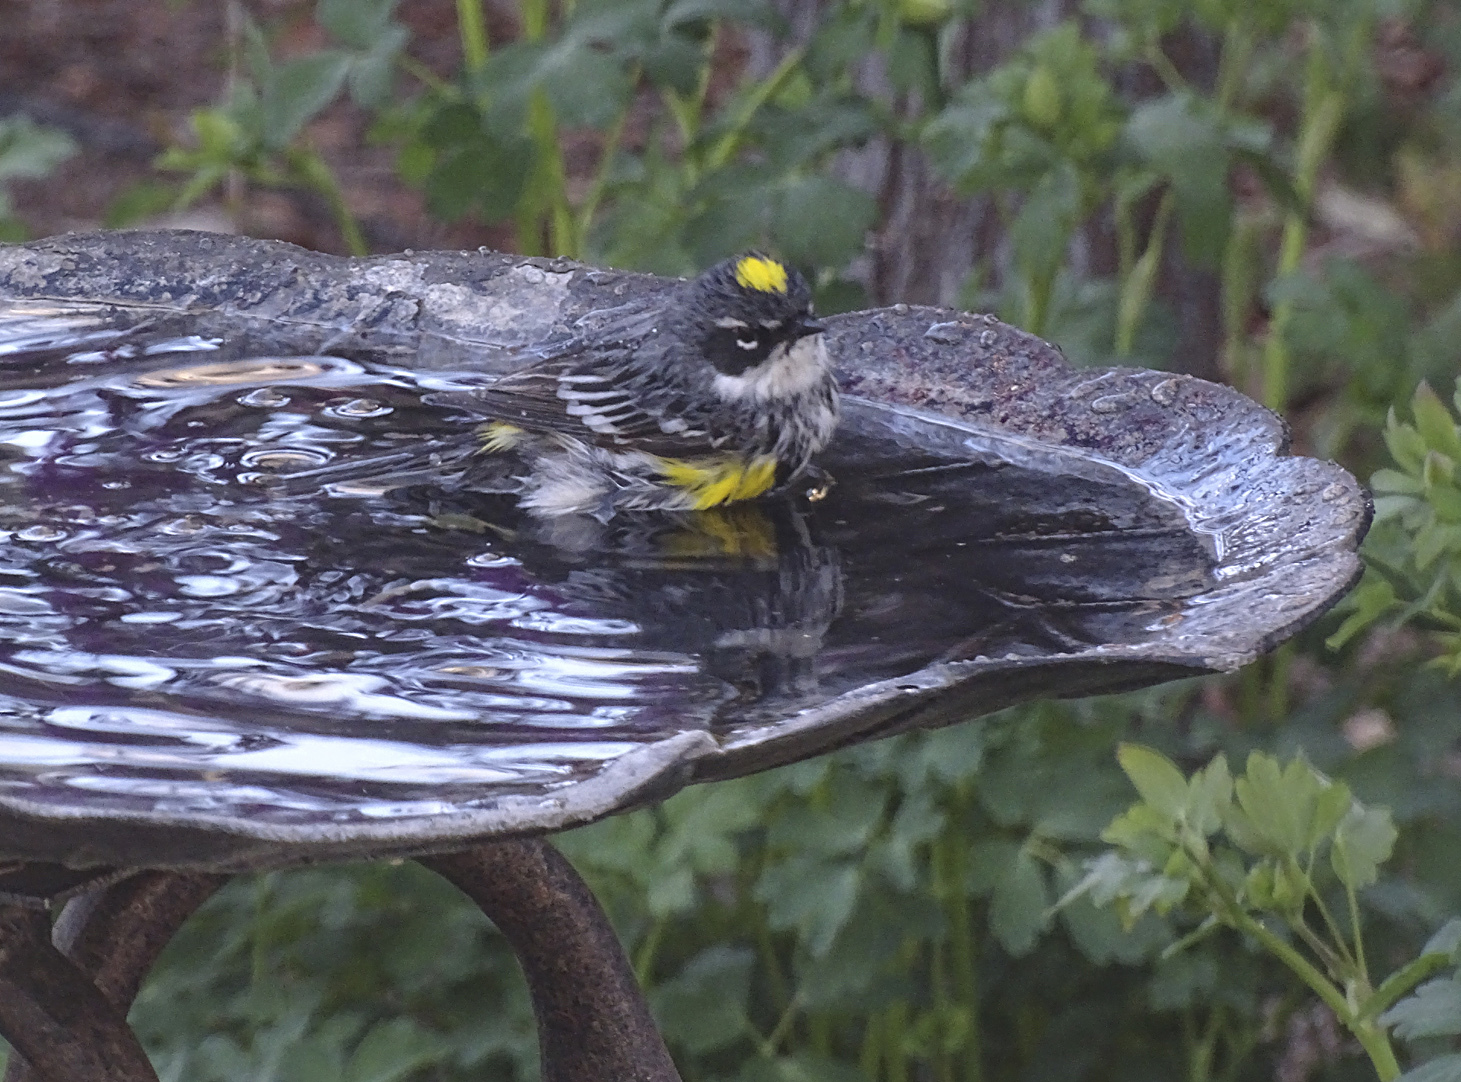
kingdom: Animalia
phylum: Chordata
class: Aves
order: Passeriformes
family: Parulidae
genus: Setophaga
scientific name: Setophaga coronata
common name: Myrtle warbler
